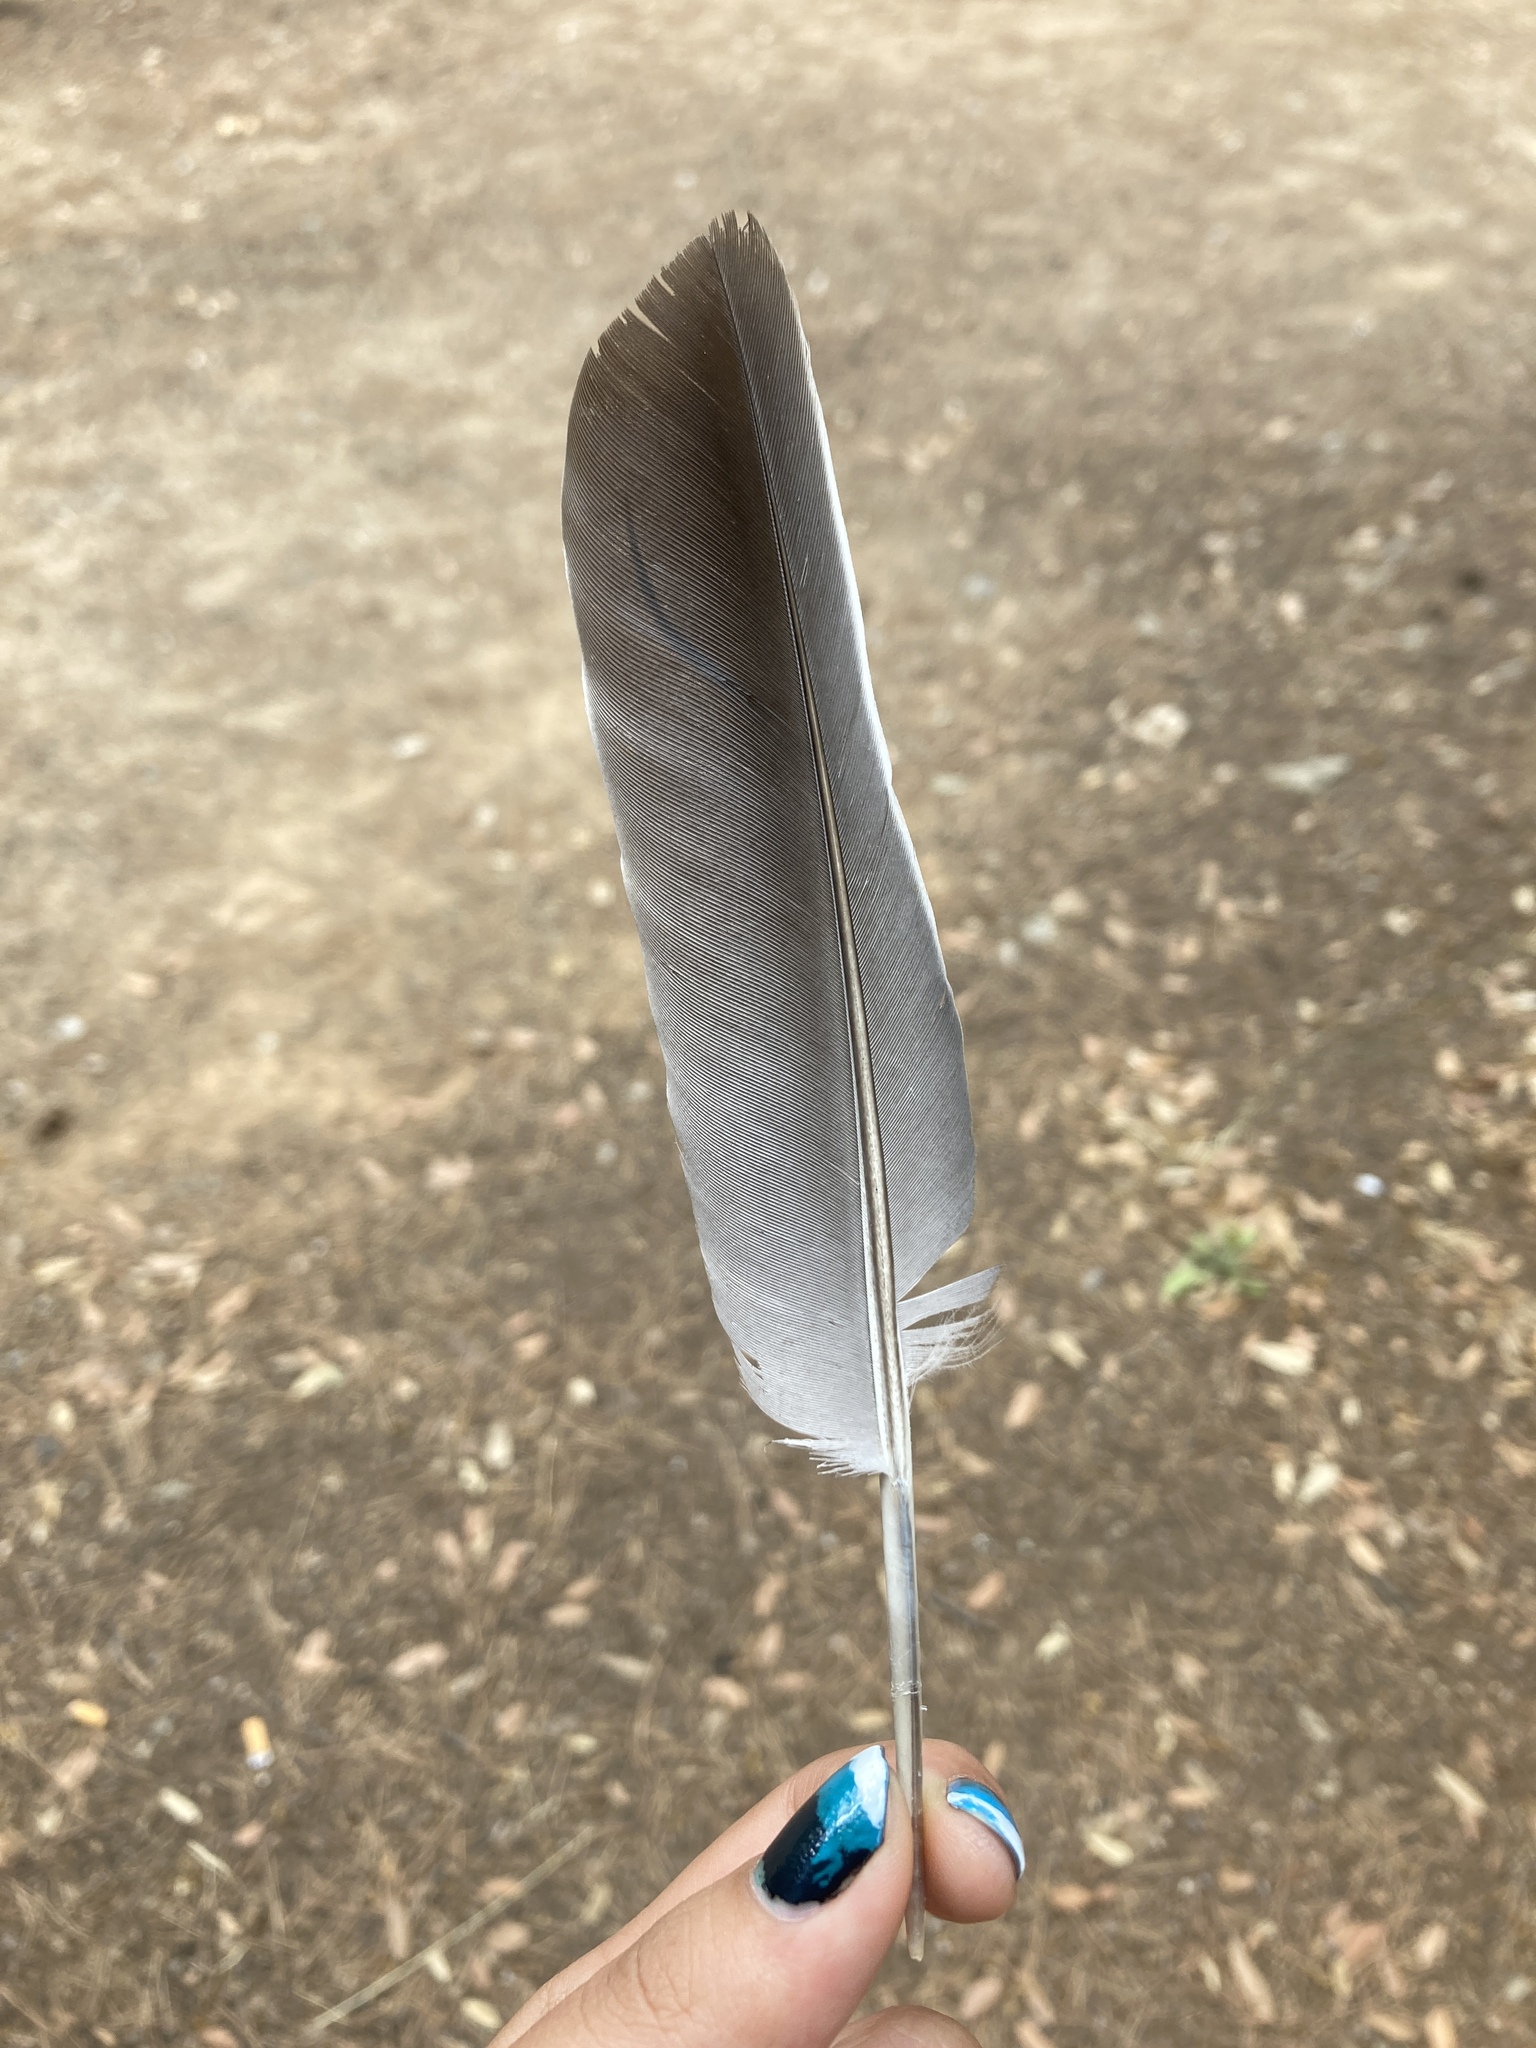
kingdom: Animalia
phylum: Chordata
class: Aves
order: Columbiformes
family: Columbidae
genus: Columba
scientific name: Columba palumbus
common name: Common wood pigeon
